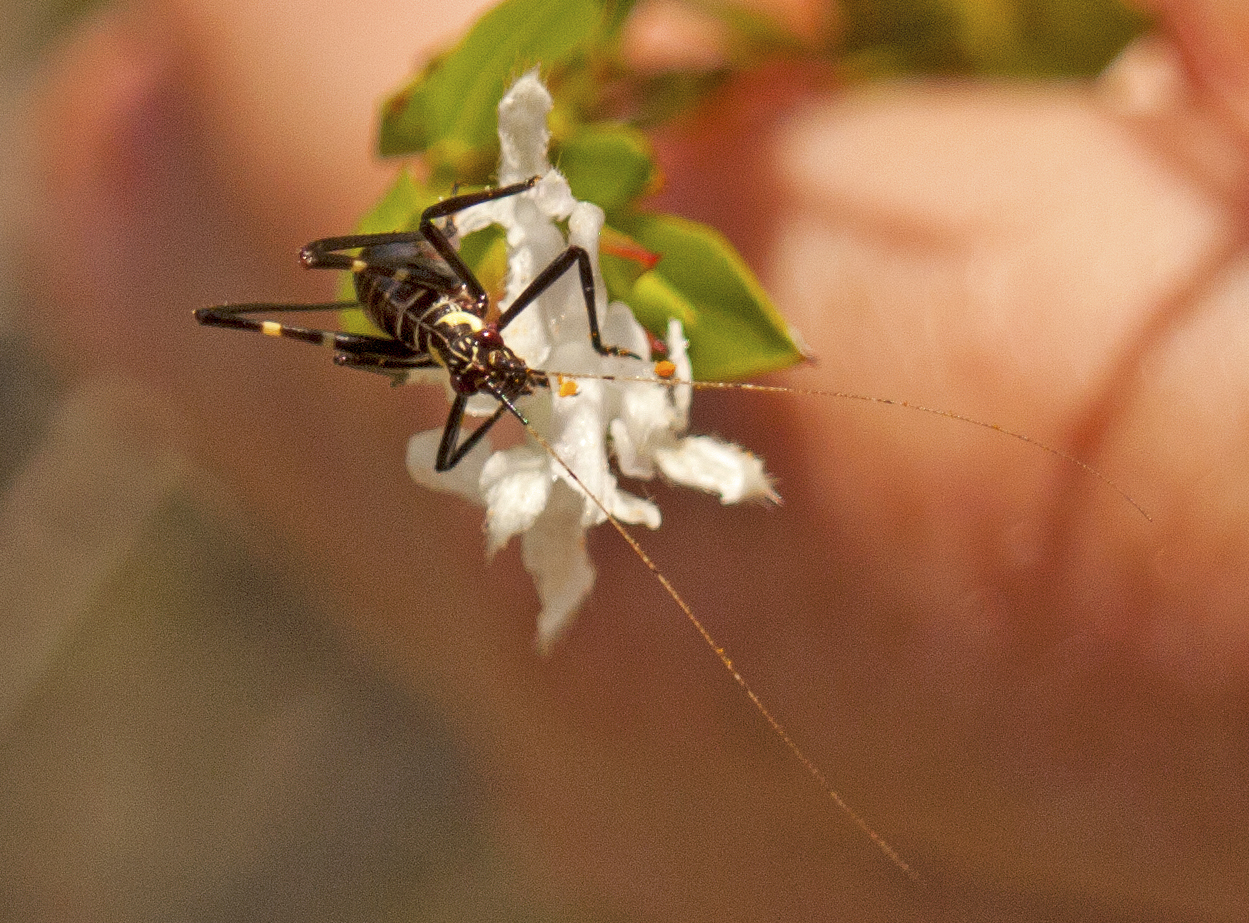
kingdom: Animalia
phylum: Arthropoda
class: Insecta
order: Orthoptera
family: Tettigoniidae
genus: Ephippitytha
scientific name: Ephippitytha trigintiduoguttata
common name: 32-spotted katydid
